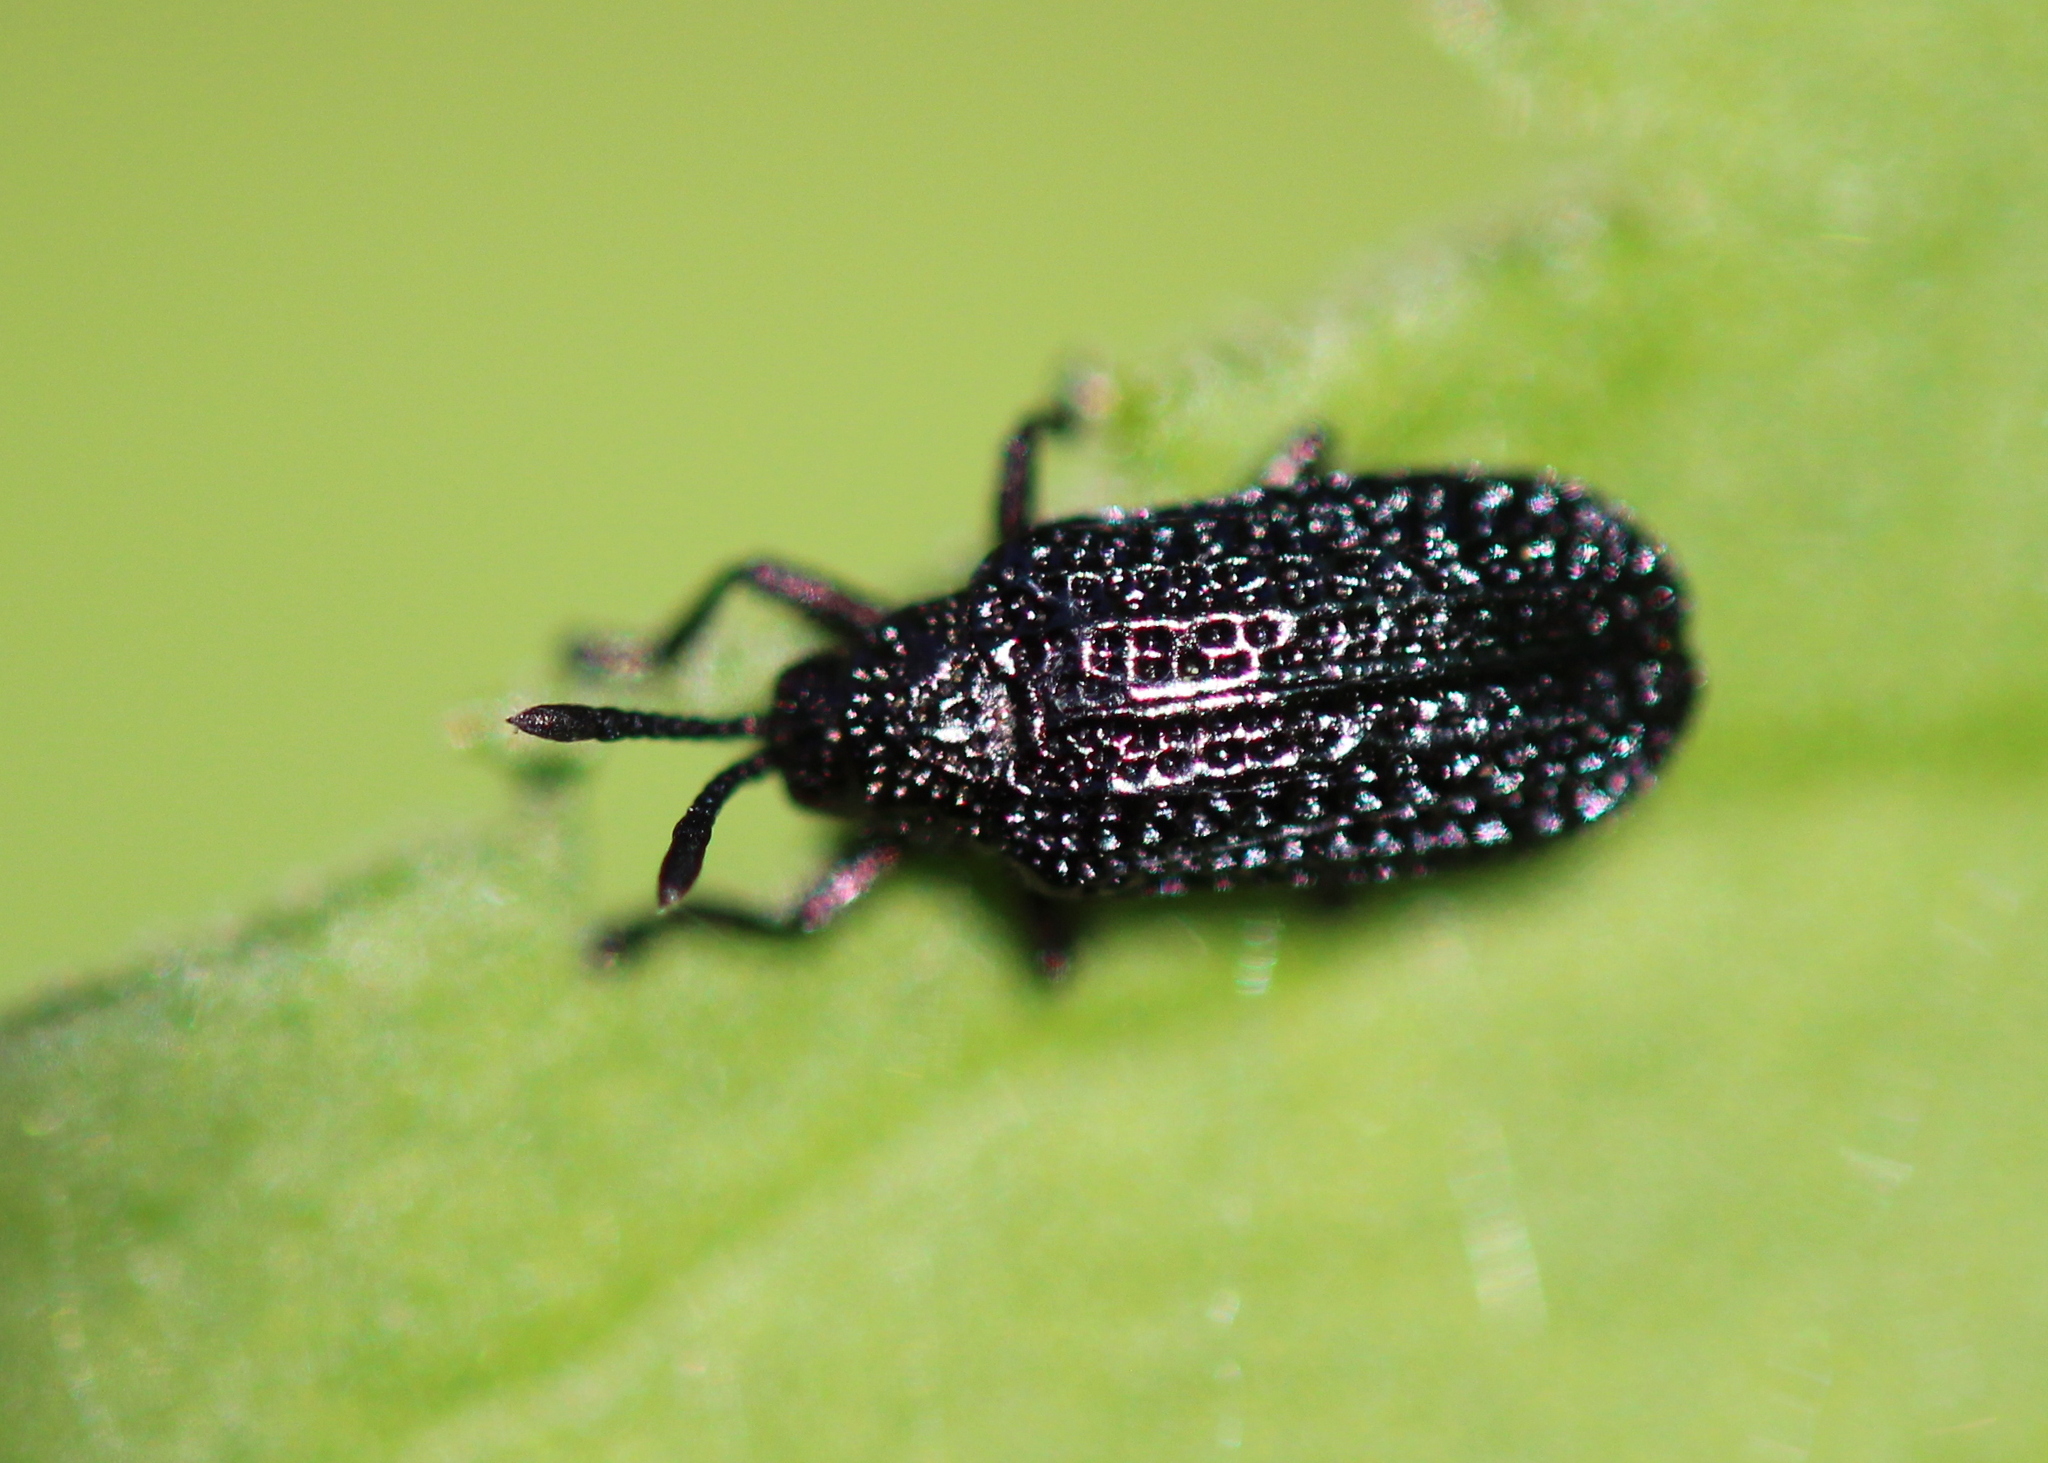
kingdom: Animalia
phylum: Arthropoda
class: Insecta
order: Coleoptera
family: Chrysomelidae
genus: Microrhopala
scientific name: Microrhopala excavata
